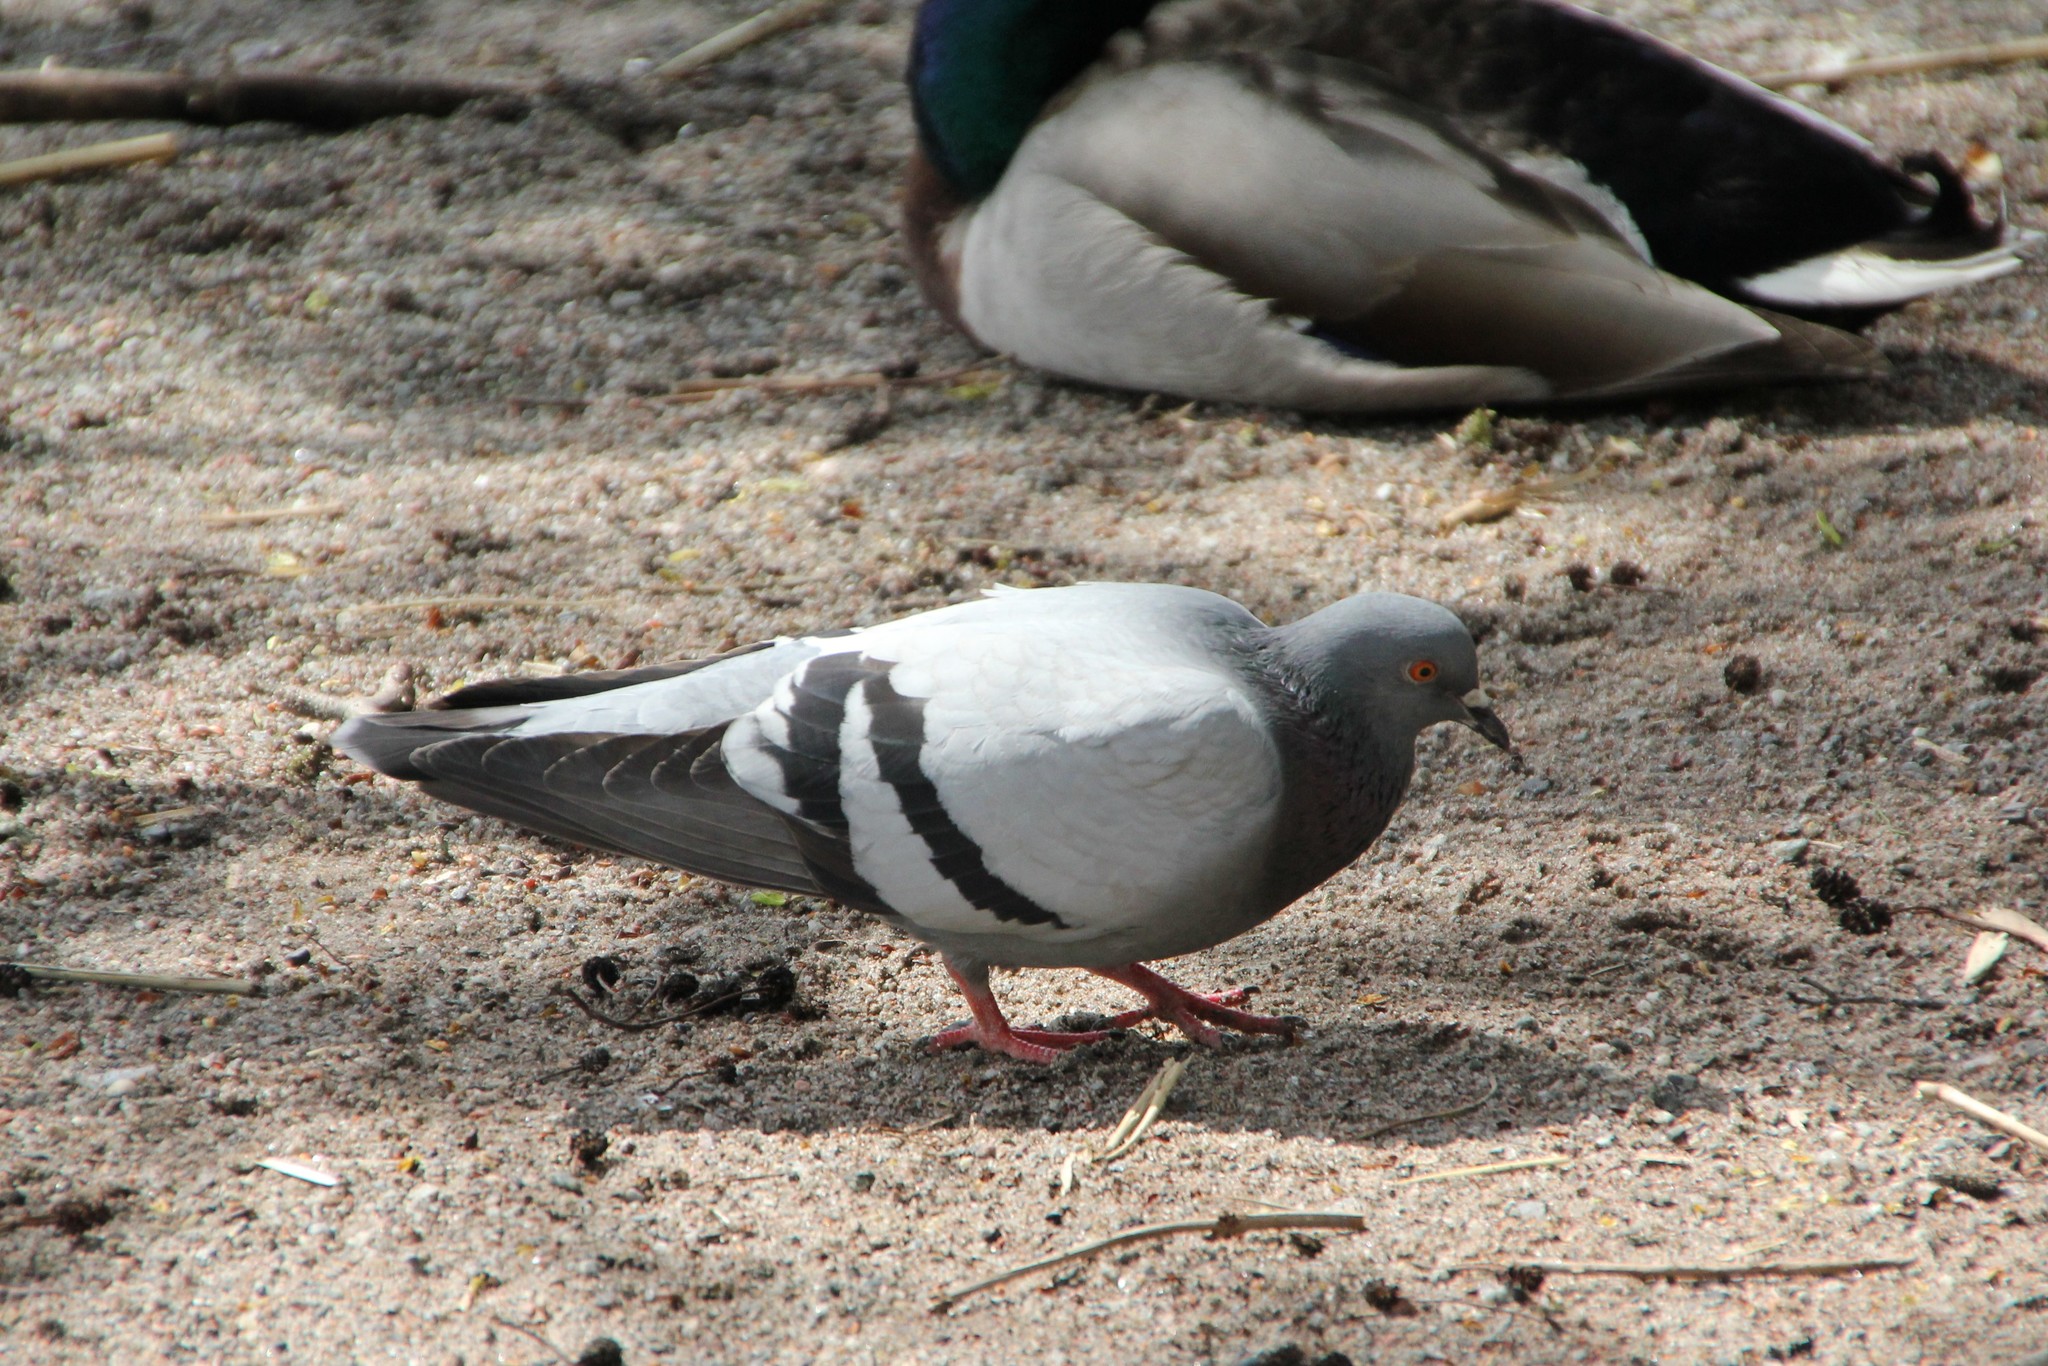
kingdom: Animalia
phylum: Chordata
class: Aves
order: Columbiformes
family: Columbidae
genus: Columba
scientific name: Columba livia
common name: Rock pigeon
